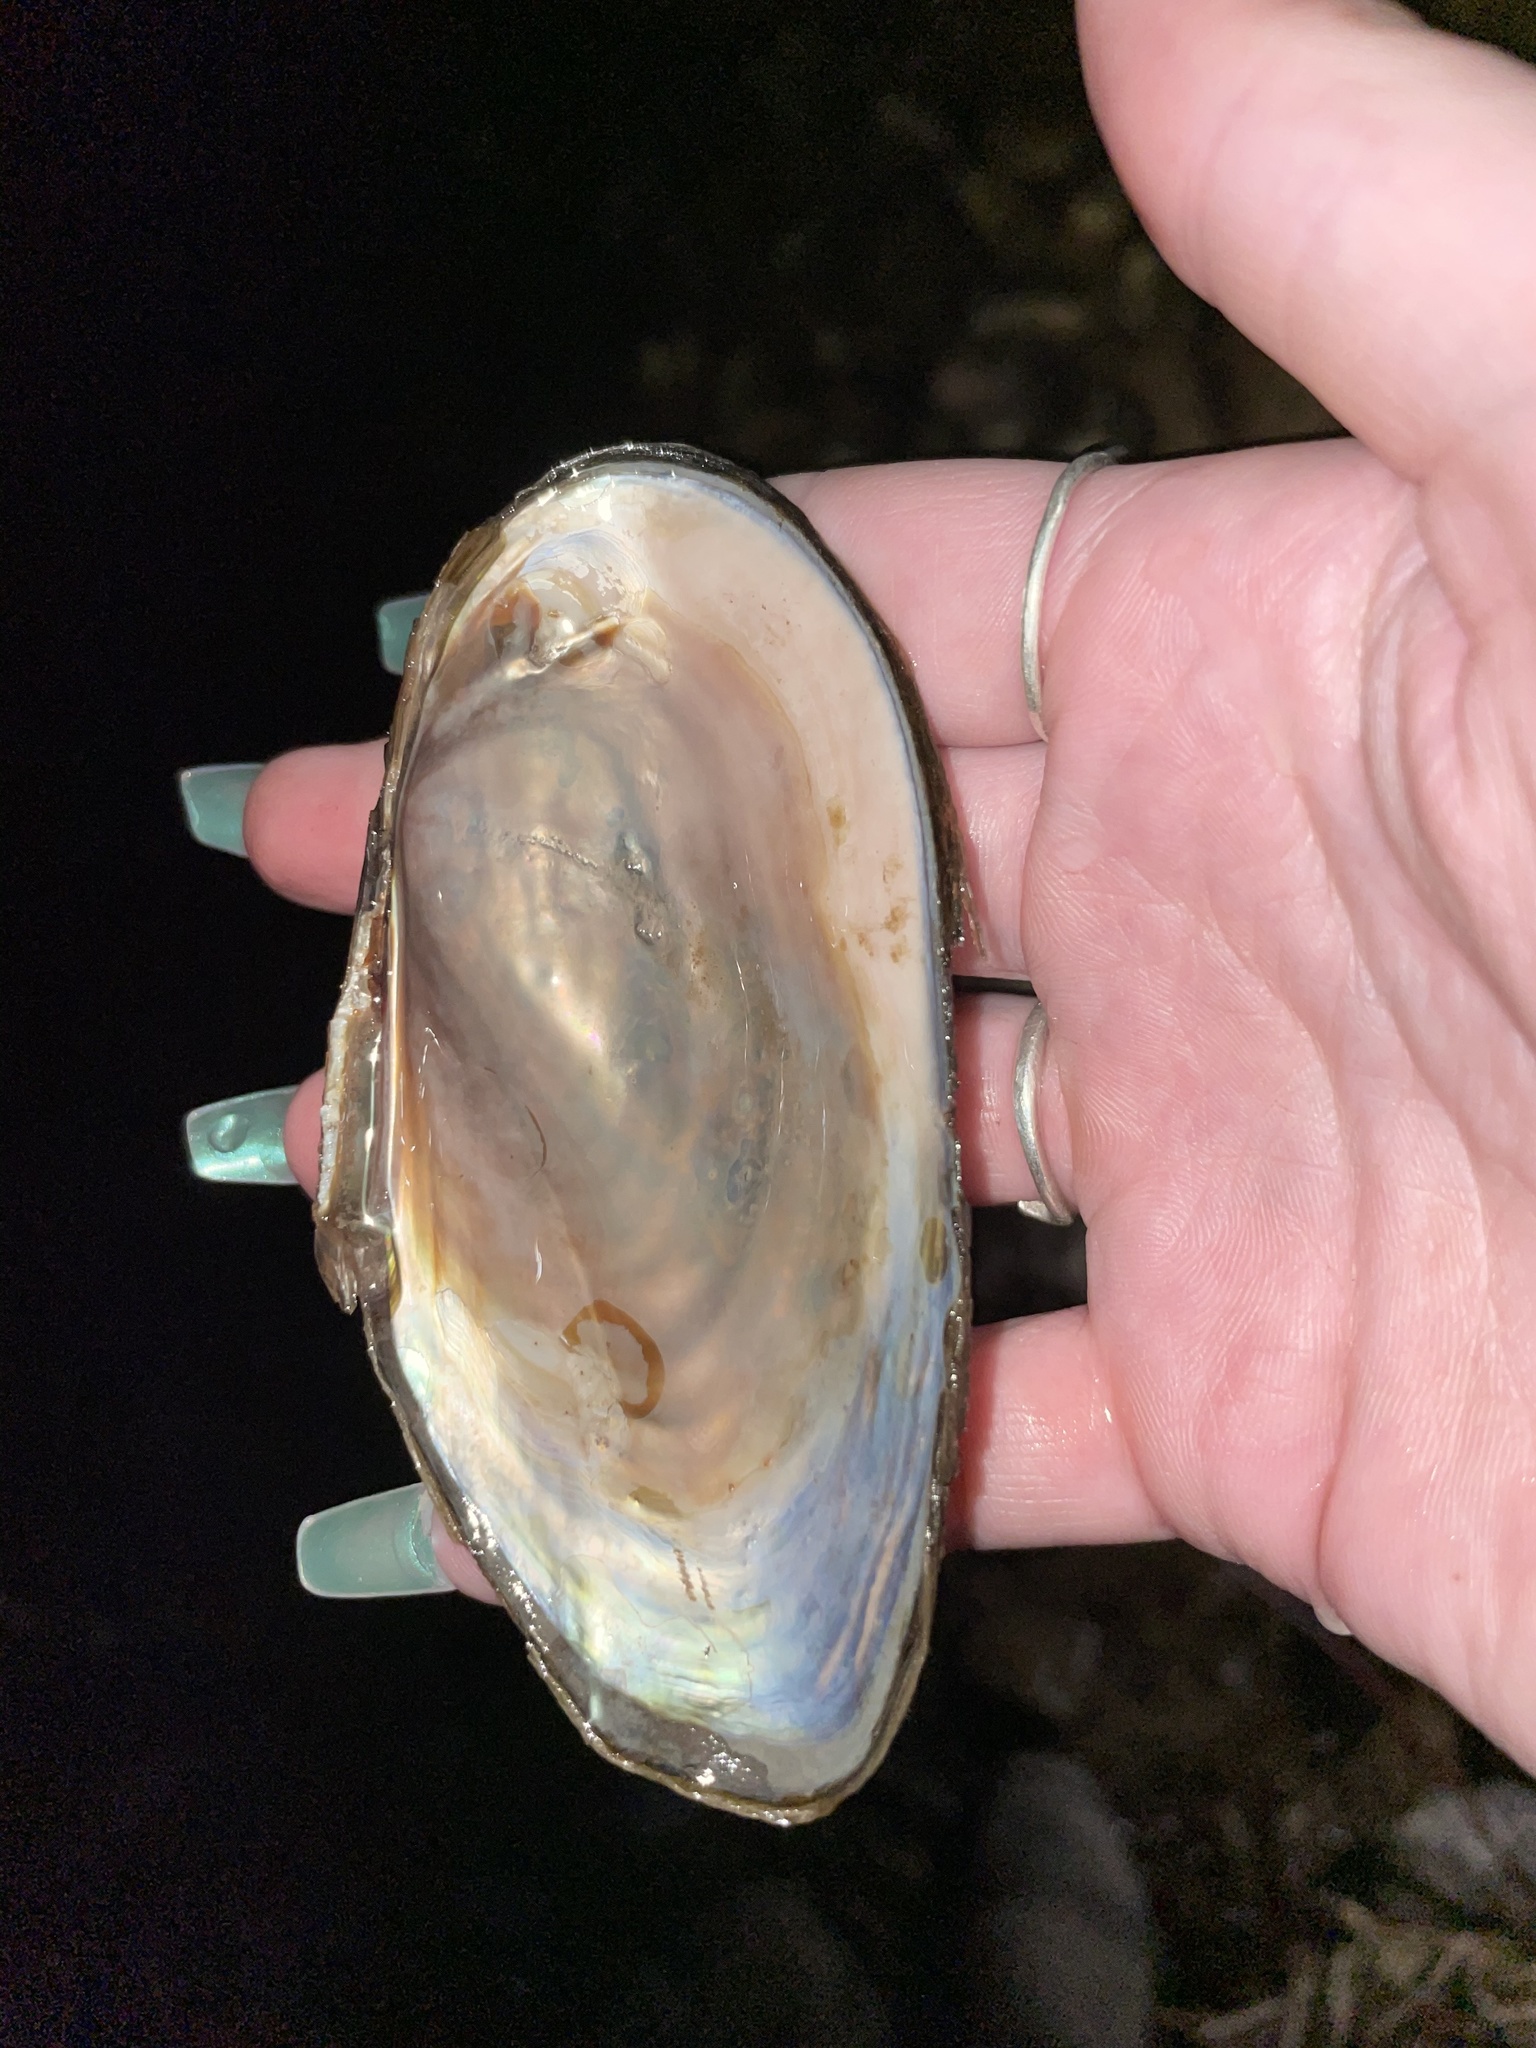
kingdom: Animalia
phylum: Mollusca
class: Bivalvia
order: Unionida
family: Unionidae
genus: Utterbackiana
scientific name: Utterbackiana implicata
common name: Alewife floater
